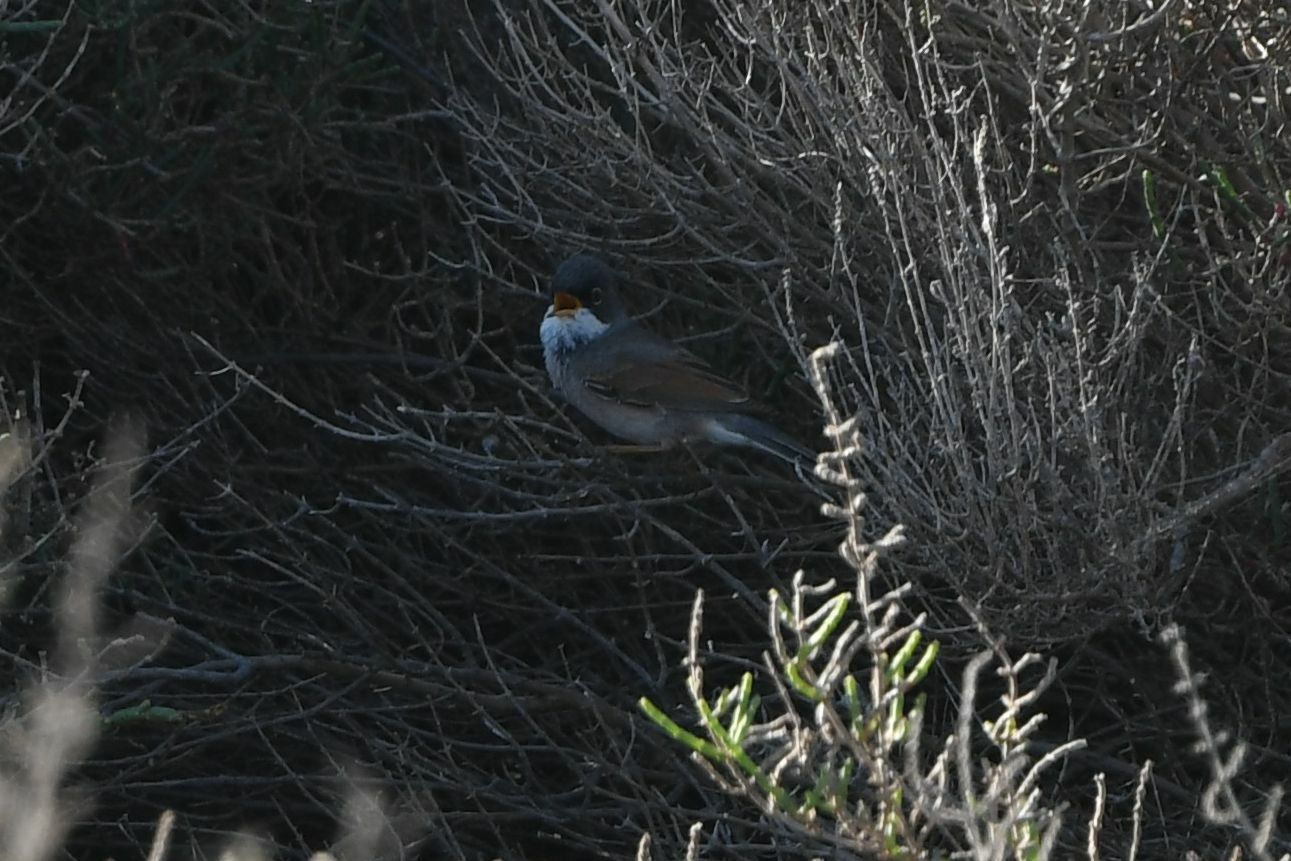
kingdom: Animalia
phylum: Chordata
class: Aves
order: Passeriformes
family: Sylviidae
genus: Sylvia
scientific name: Sylvia conspicillata
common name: Spectacled warbler
